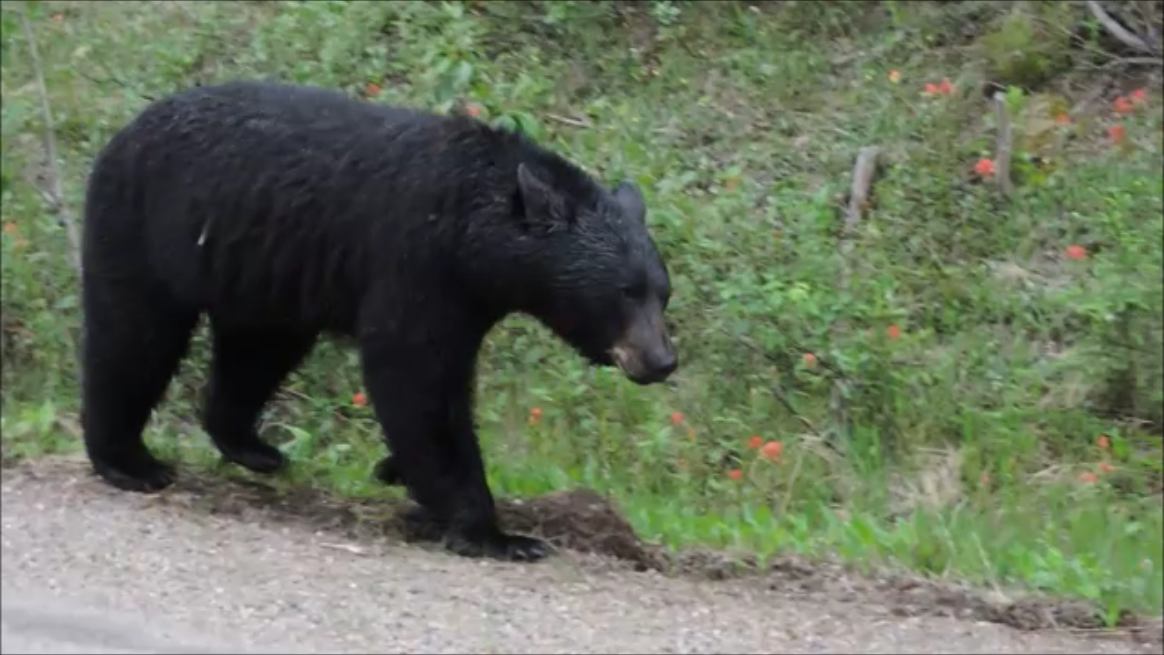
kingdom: Animalia
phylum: Chordata
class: Mammalia
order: Carnivora
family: Ursidae
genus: Ursus
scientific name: Ursus americanus
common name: American black bear
